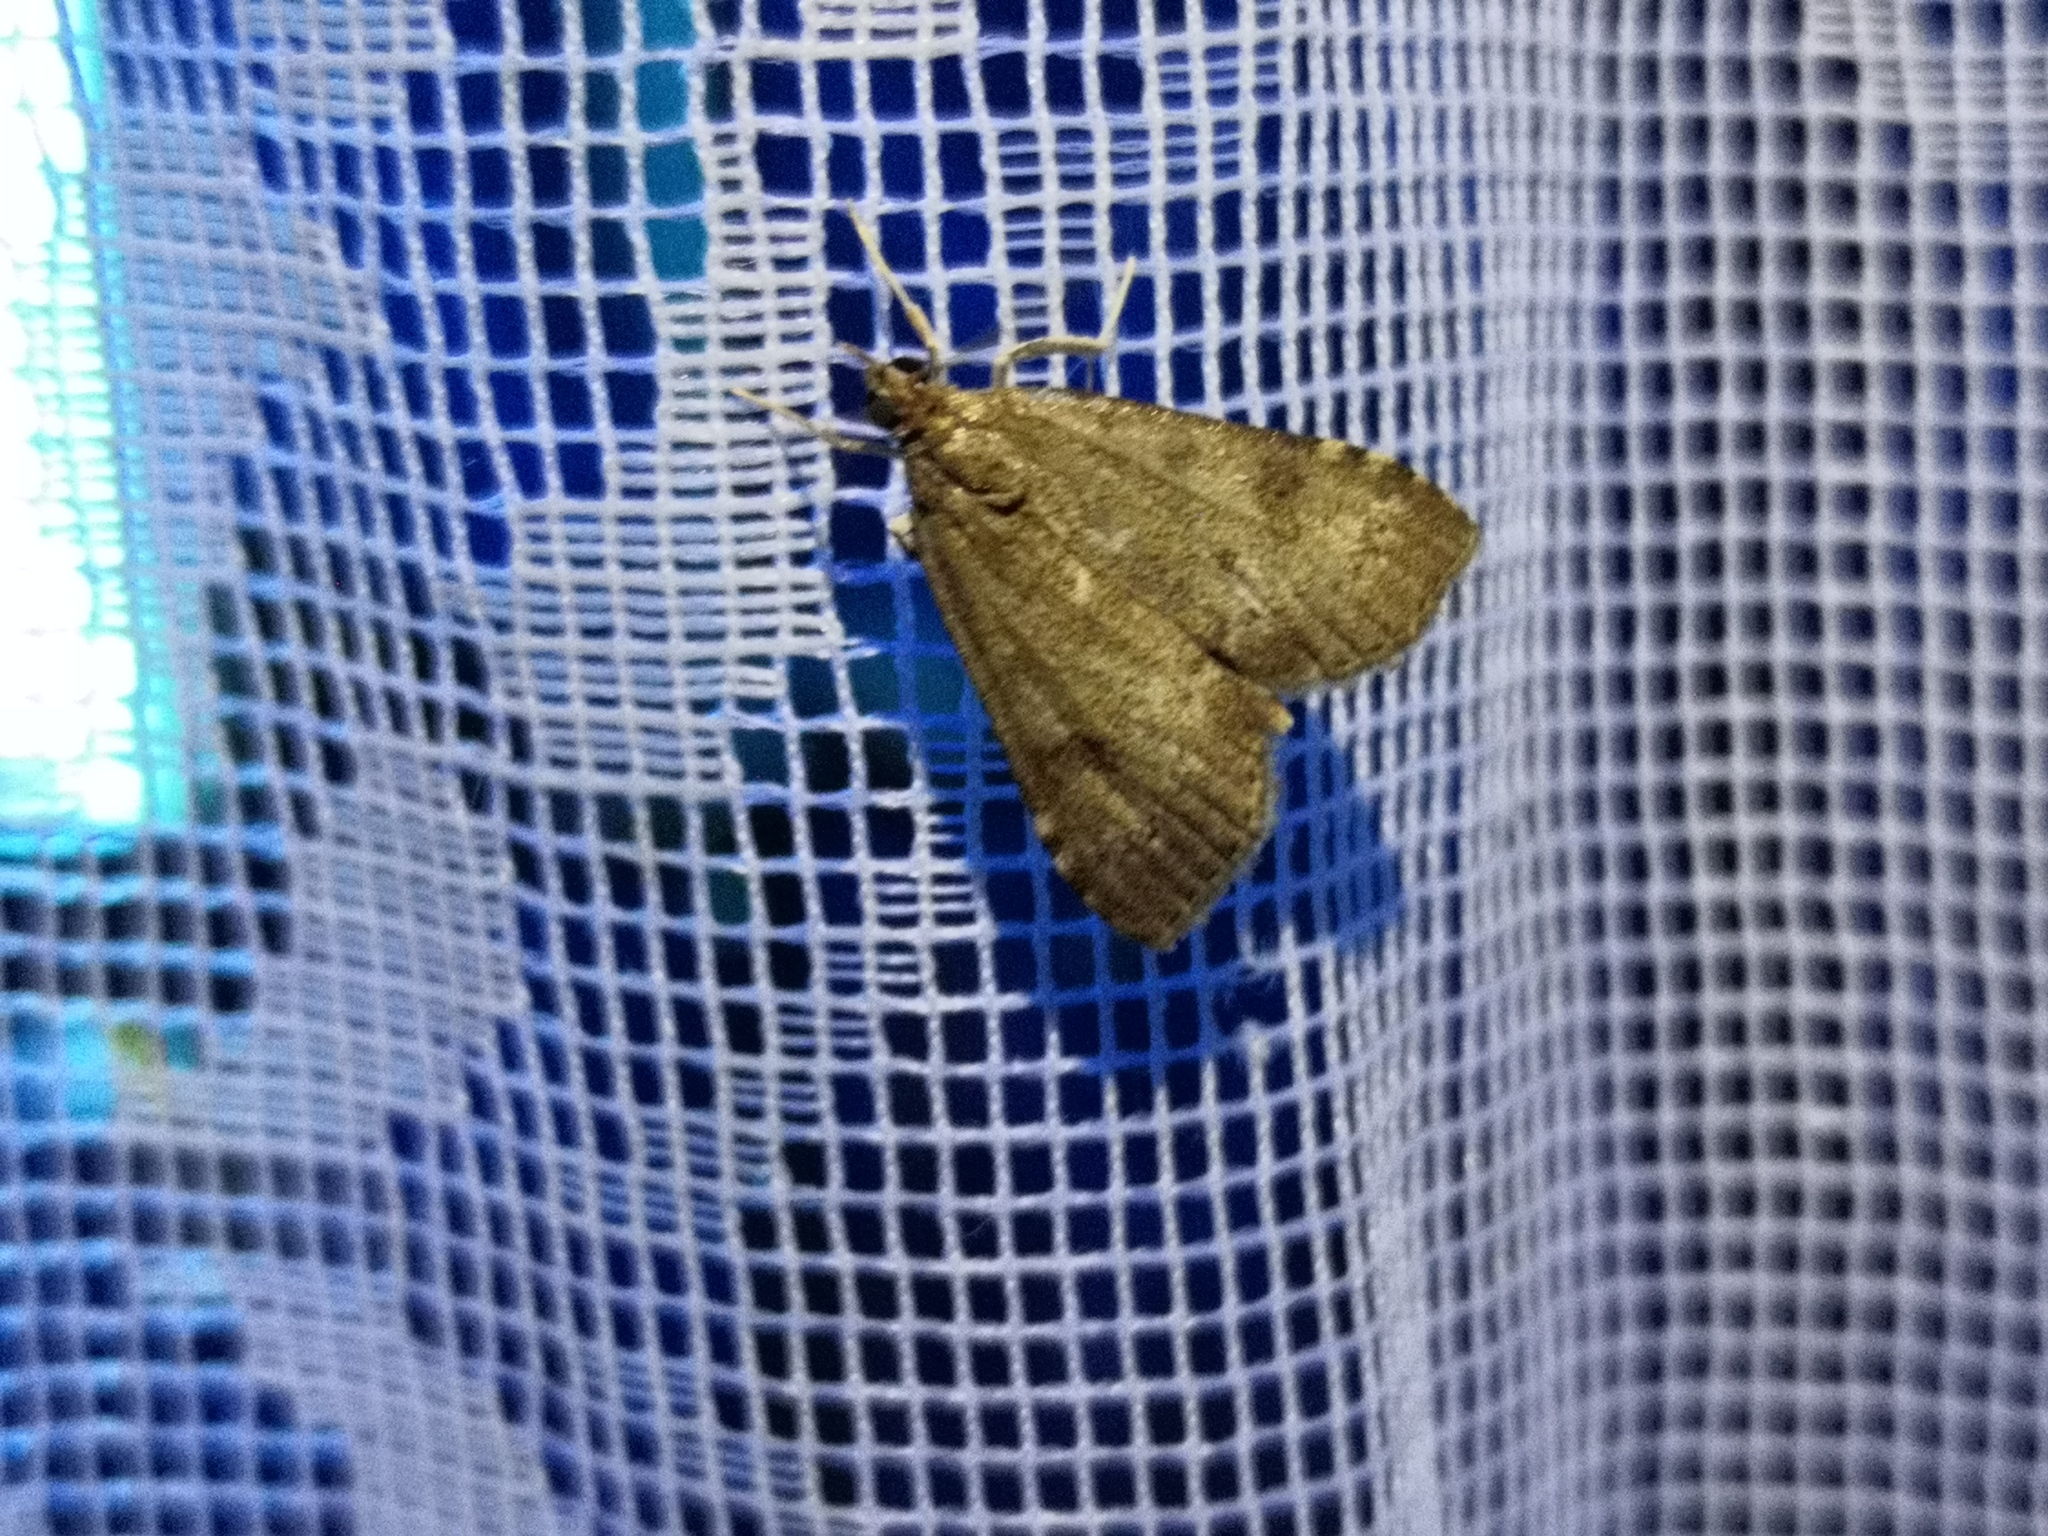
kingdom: Animalia
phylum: Arthropoda
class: Insecta
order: Lepidoptera
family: Crambidae
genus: Udea
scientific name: Udea prunalis
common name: Dusky pearl
